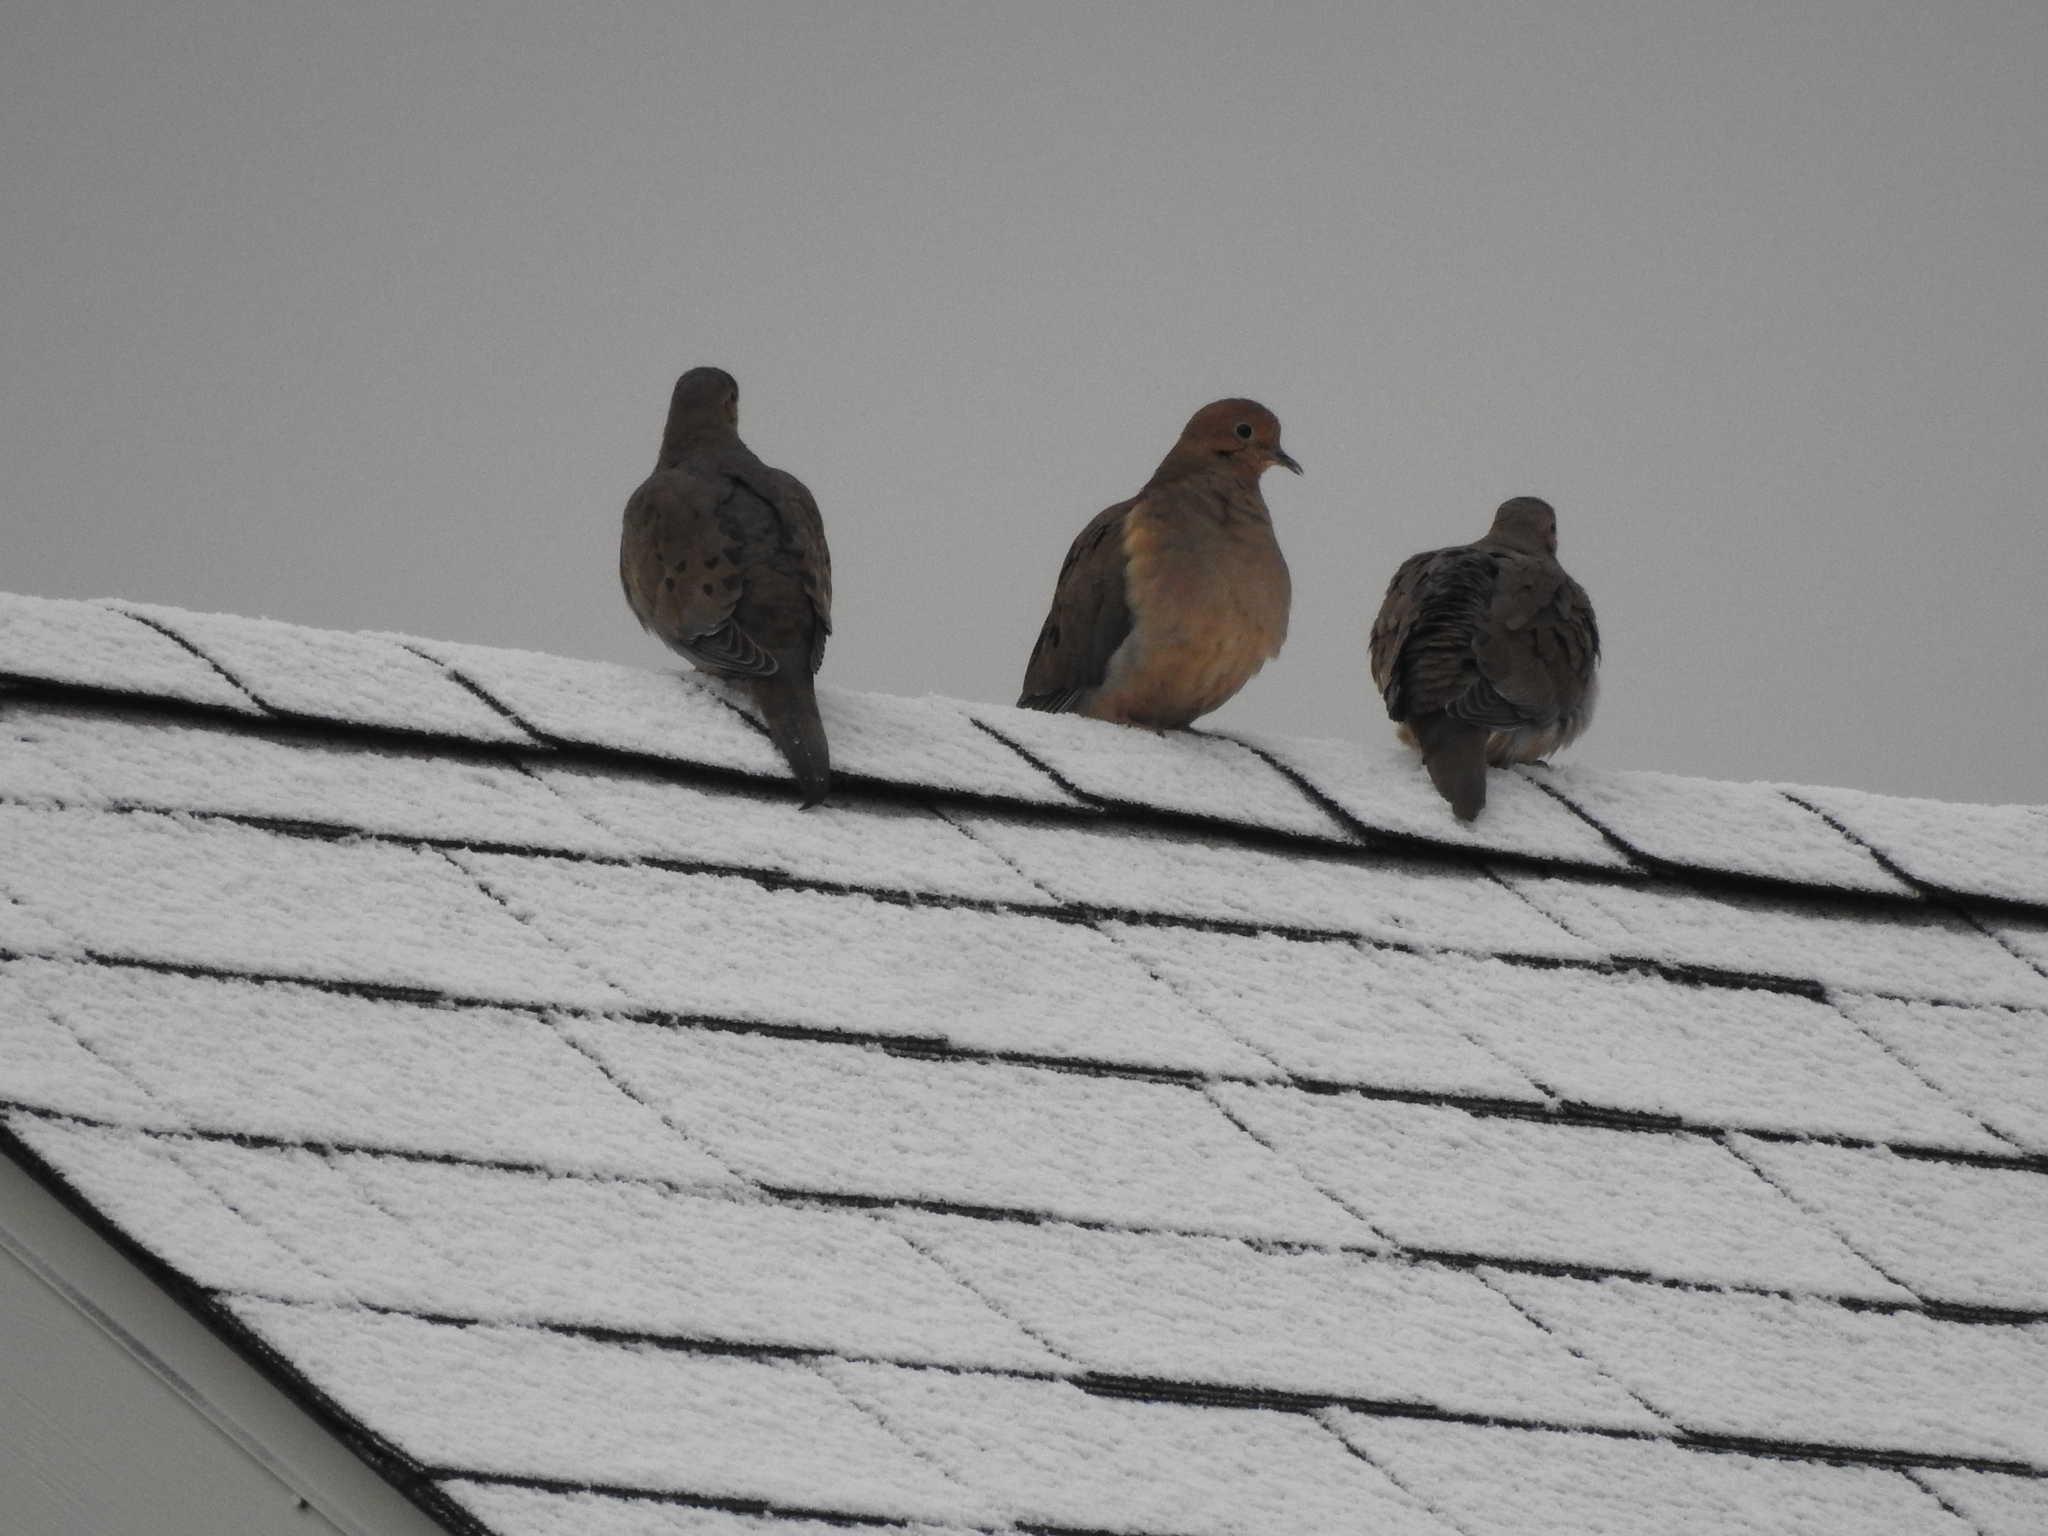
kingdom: Animalia
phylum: Chordata
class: Aves
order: Columbiformes
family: Columbidae
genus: Zenaida
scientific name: Zenaida macroura
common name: Mourning dove
